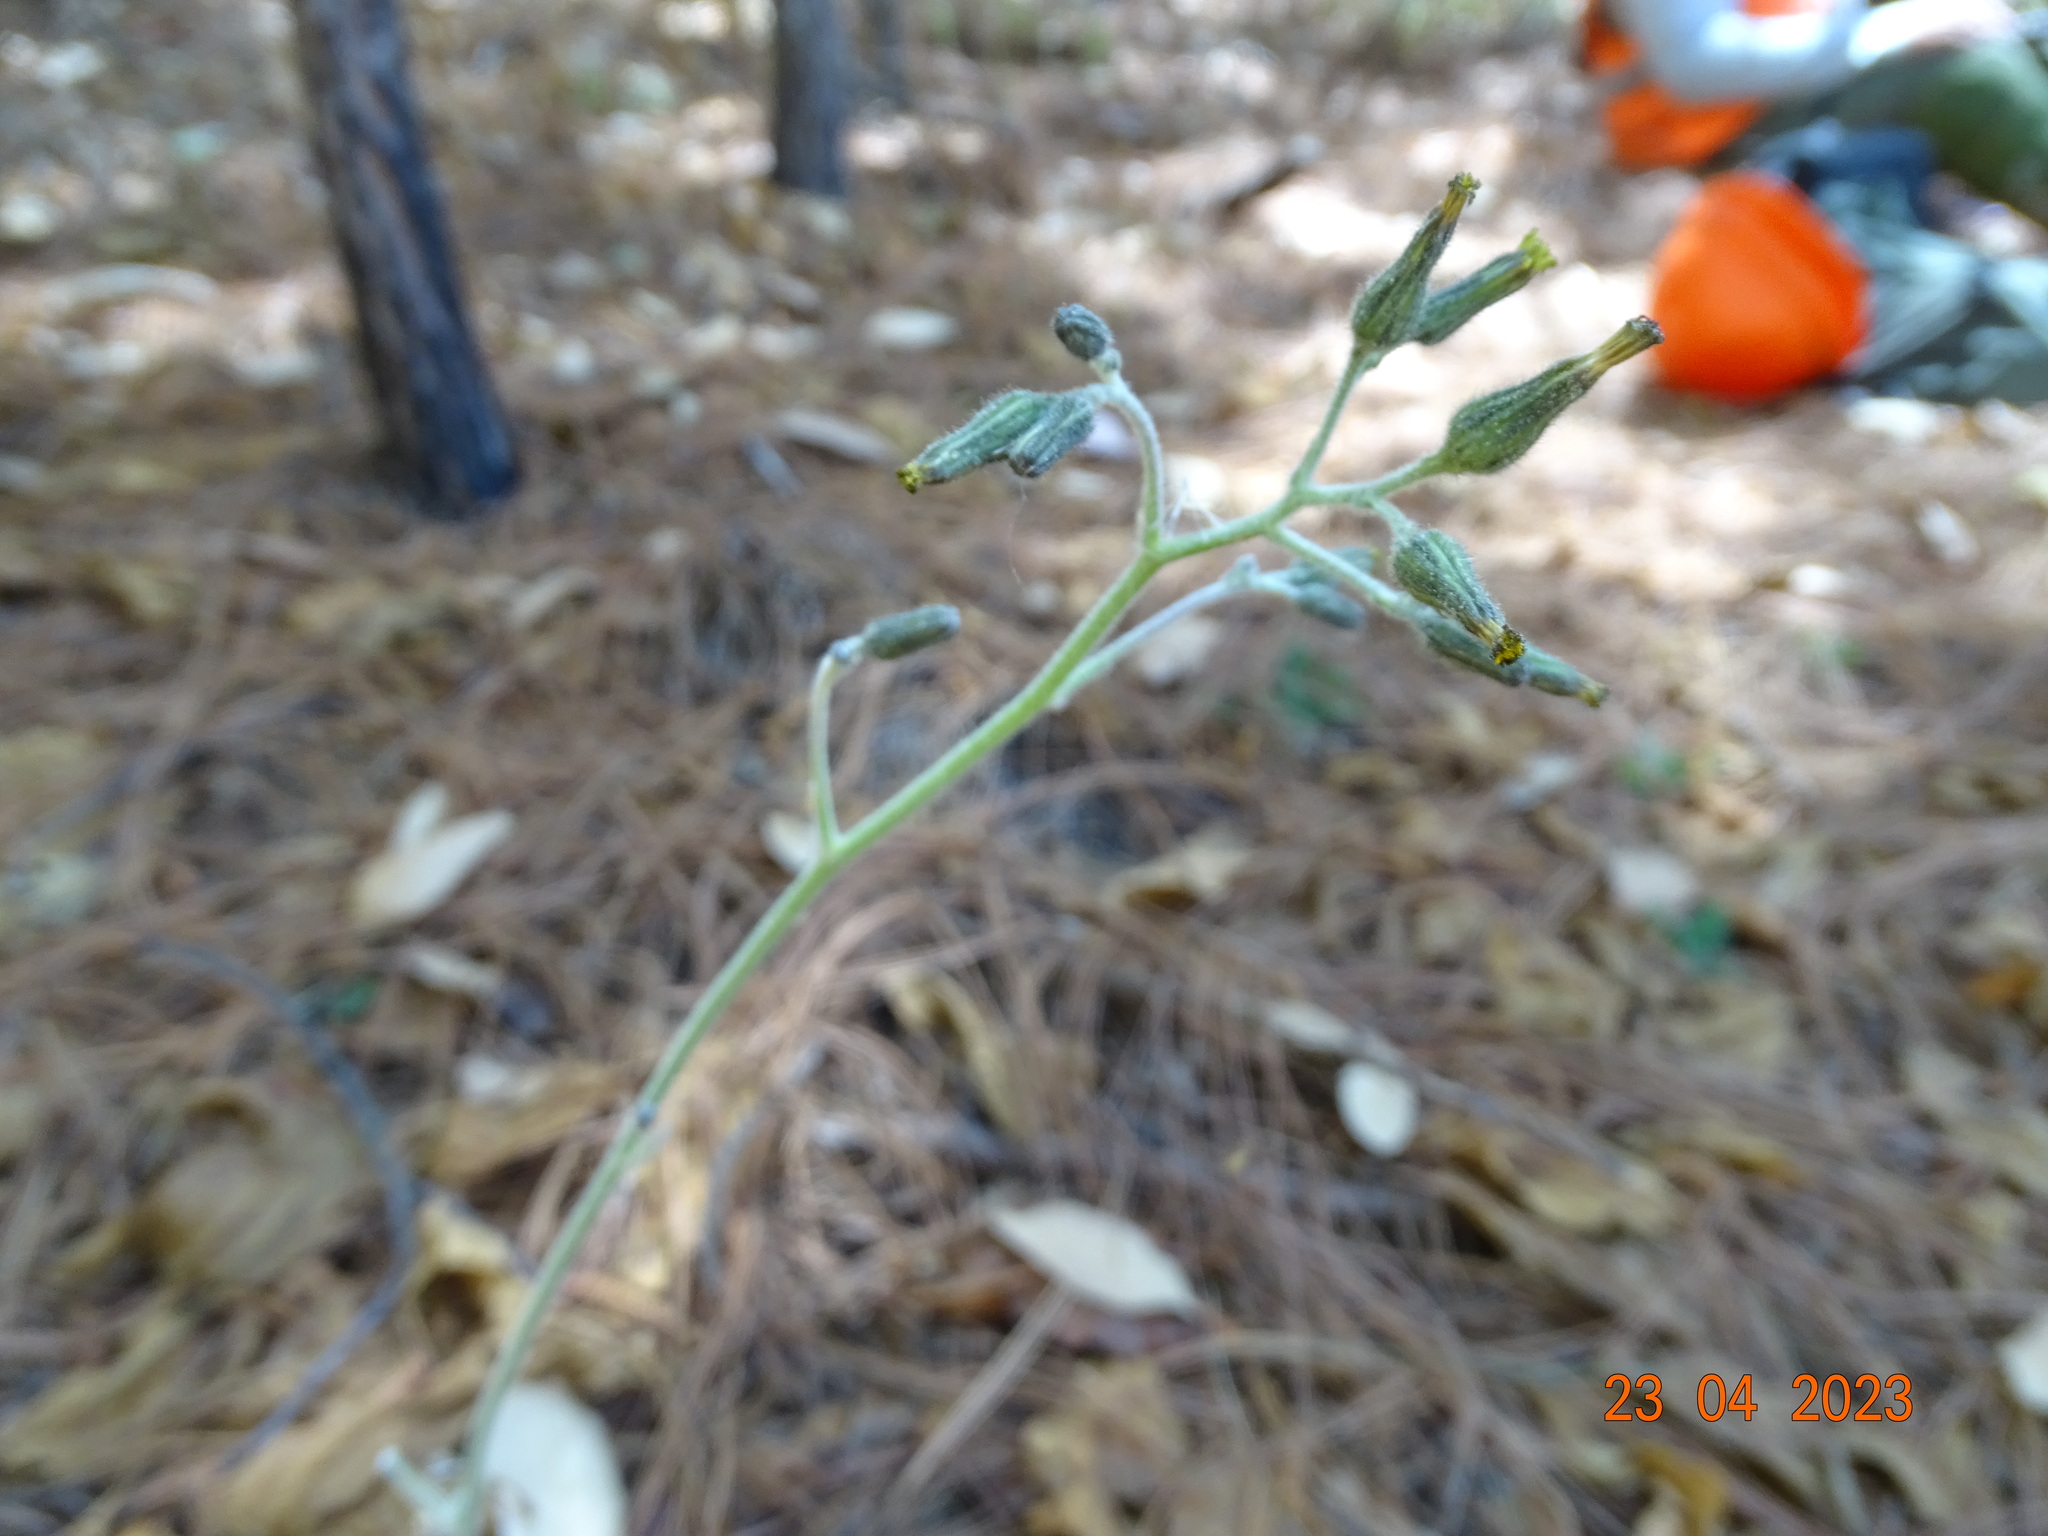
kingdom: Plantae
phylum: Tracheophyta
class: Magnoliopsida
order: Asterales
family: Asteraceae
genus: Hieracium
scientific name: Hieracium fendleri
